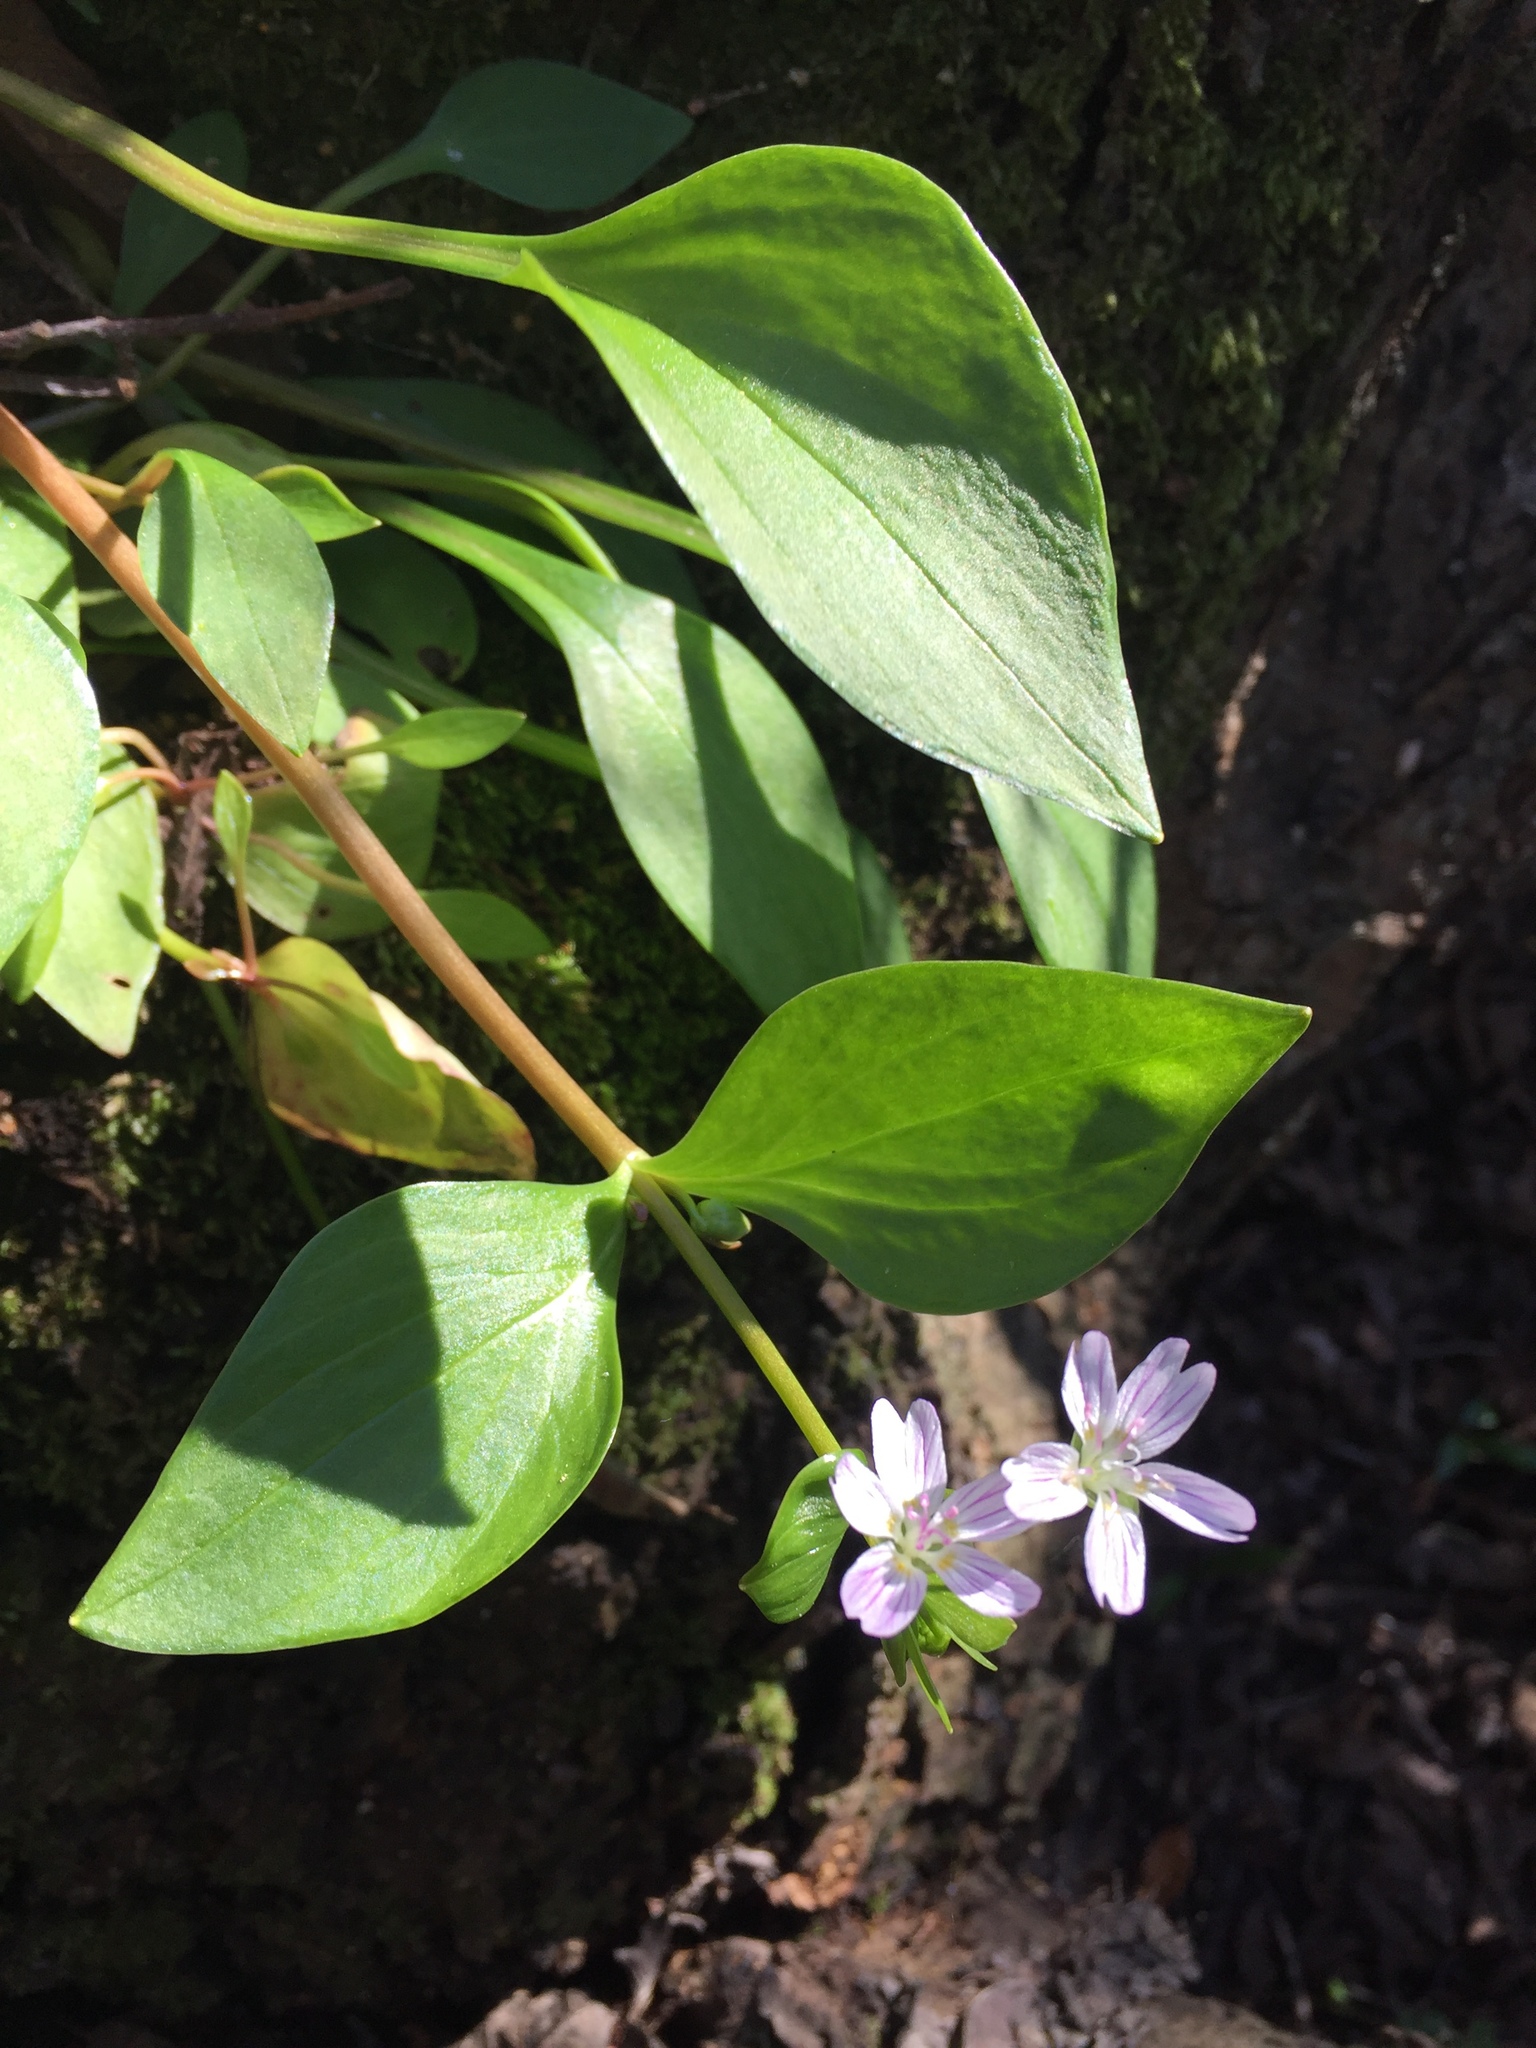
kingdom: Plantae
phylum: Tracheophyta
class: Magnoliopsida
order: Caryophyllales
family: Montiaceae
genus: Claytonia
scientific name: Claytonia sibirica
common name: Pink purslane
